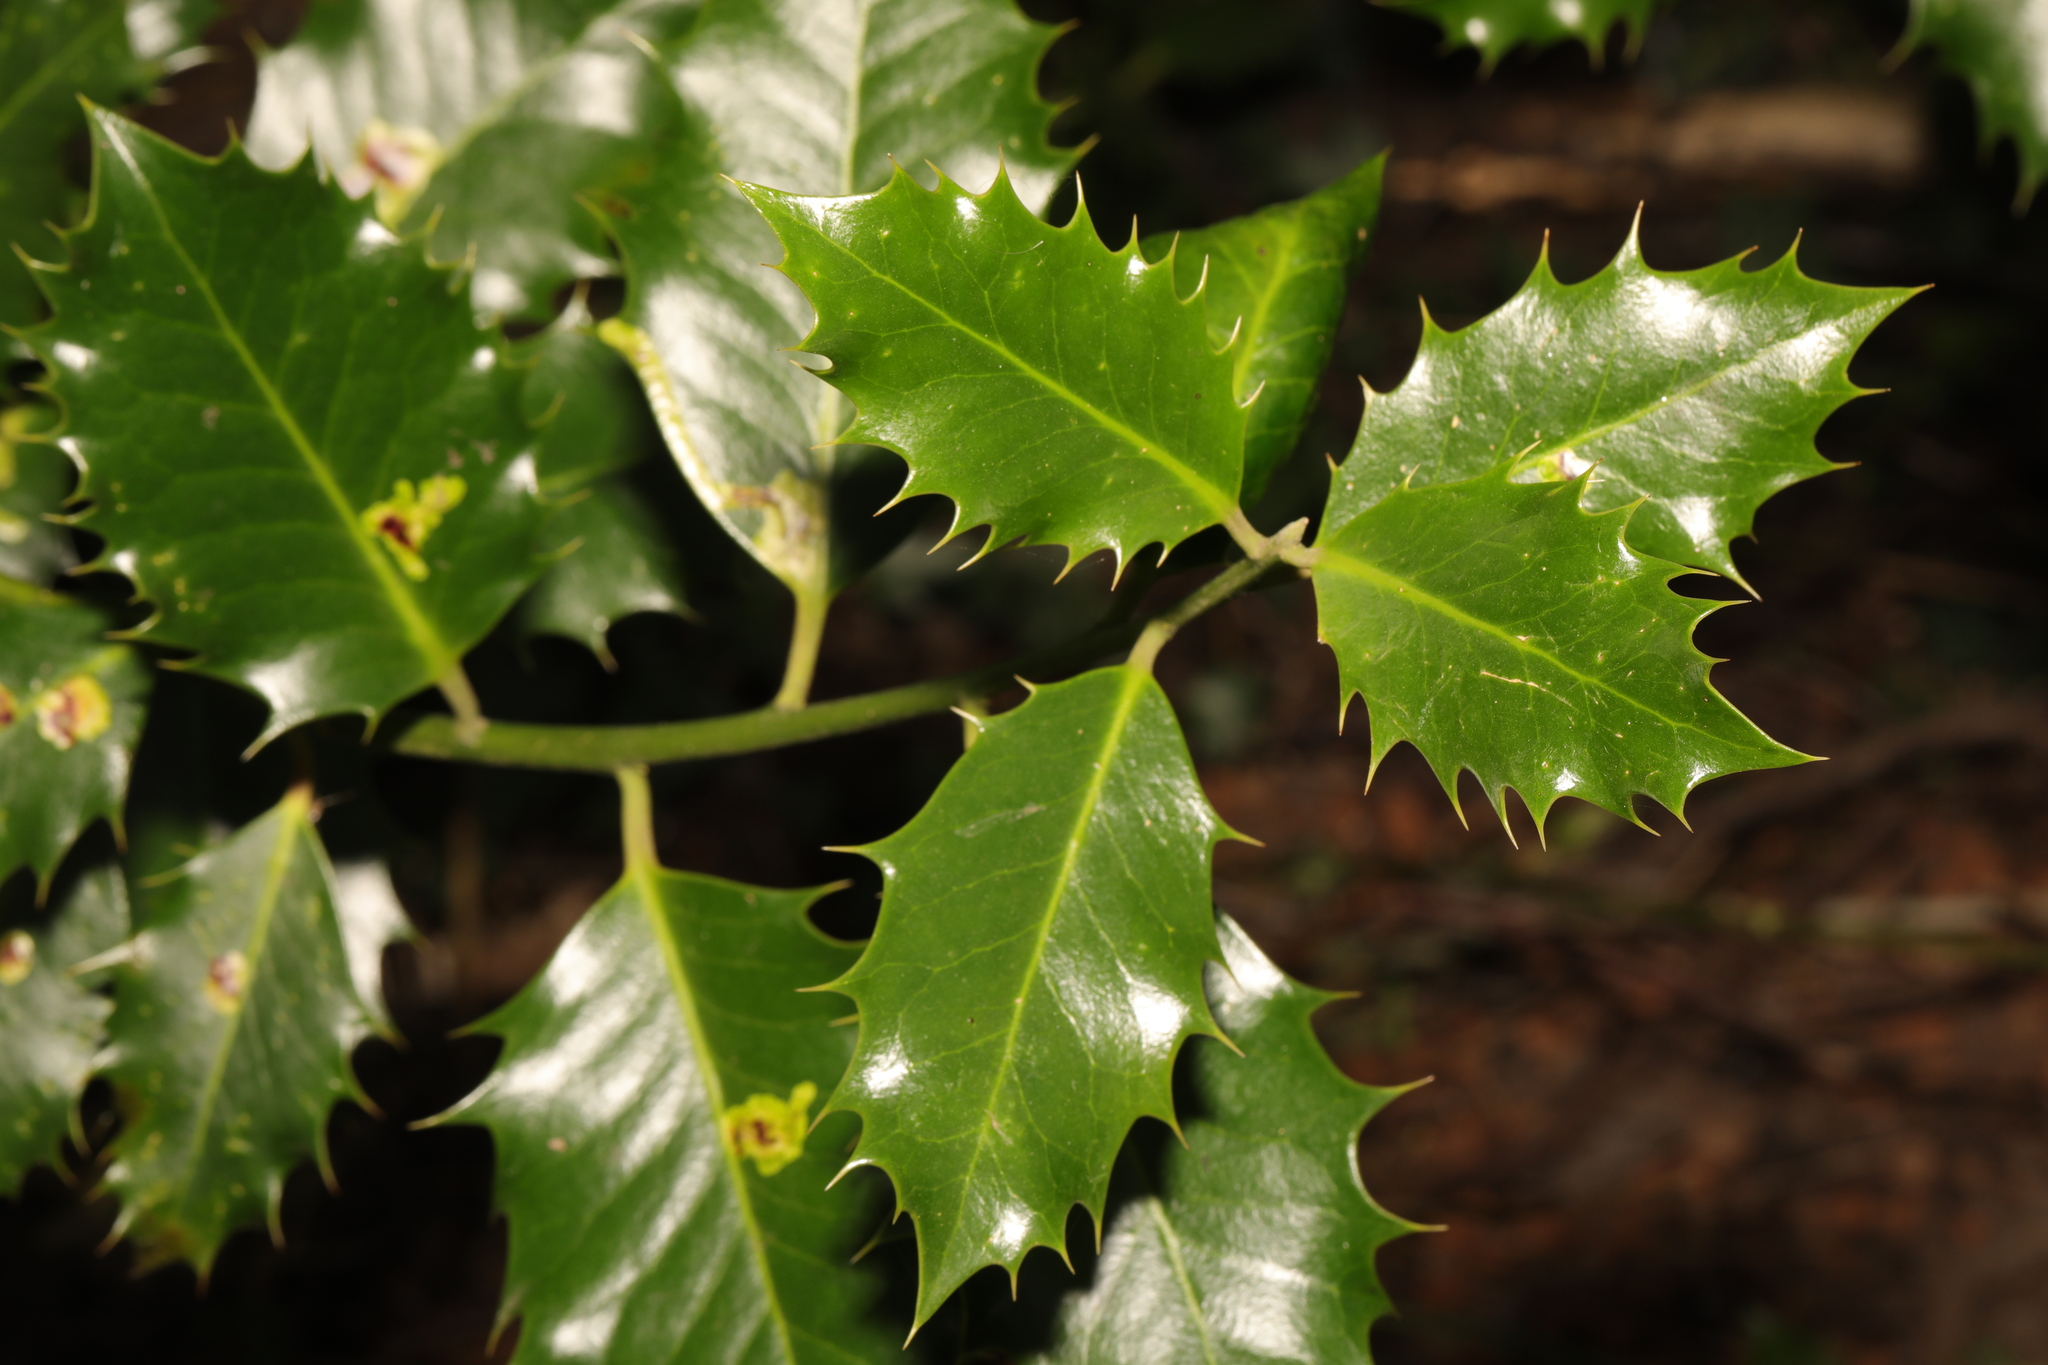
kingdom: Plantae
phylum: Tracheophyta
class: Magnoliopsida
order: Aquifoliales
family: Aquifoliaceae
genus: Ilex
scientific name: Ilex aquifolium
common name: English holly
